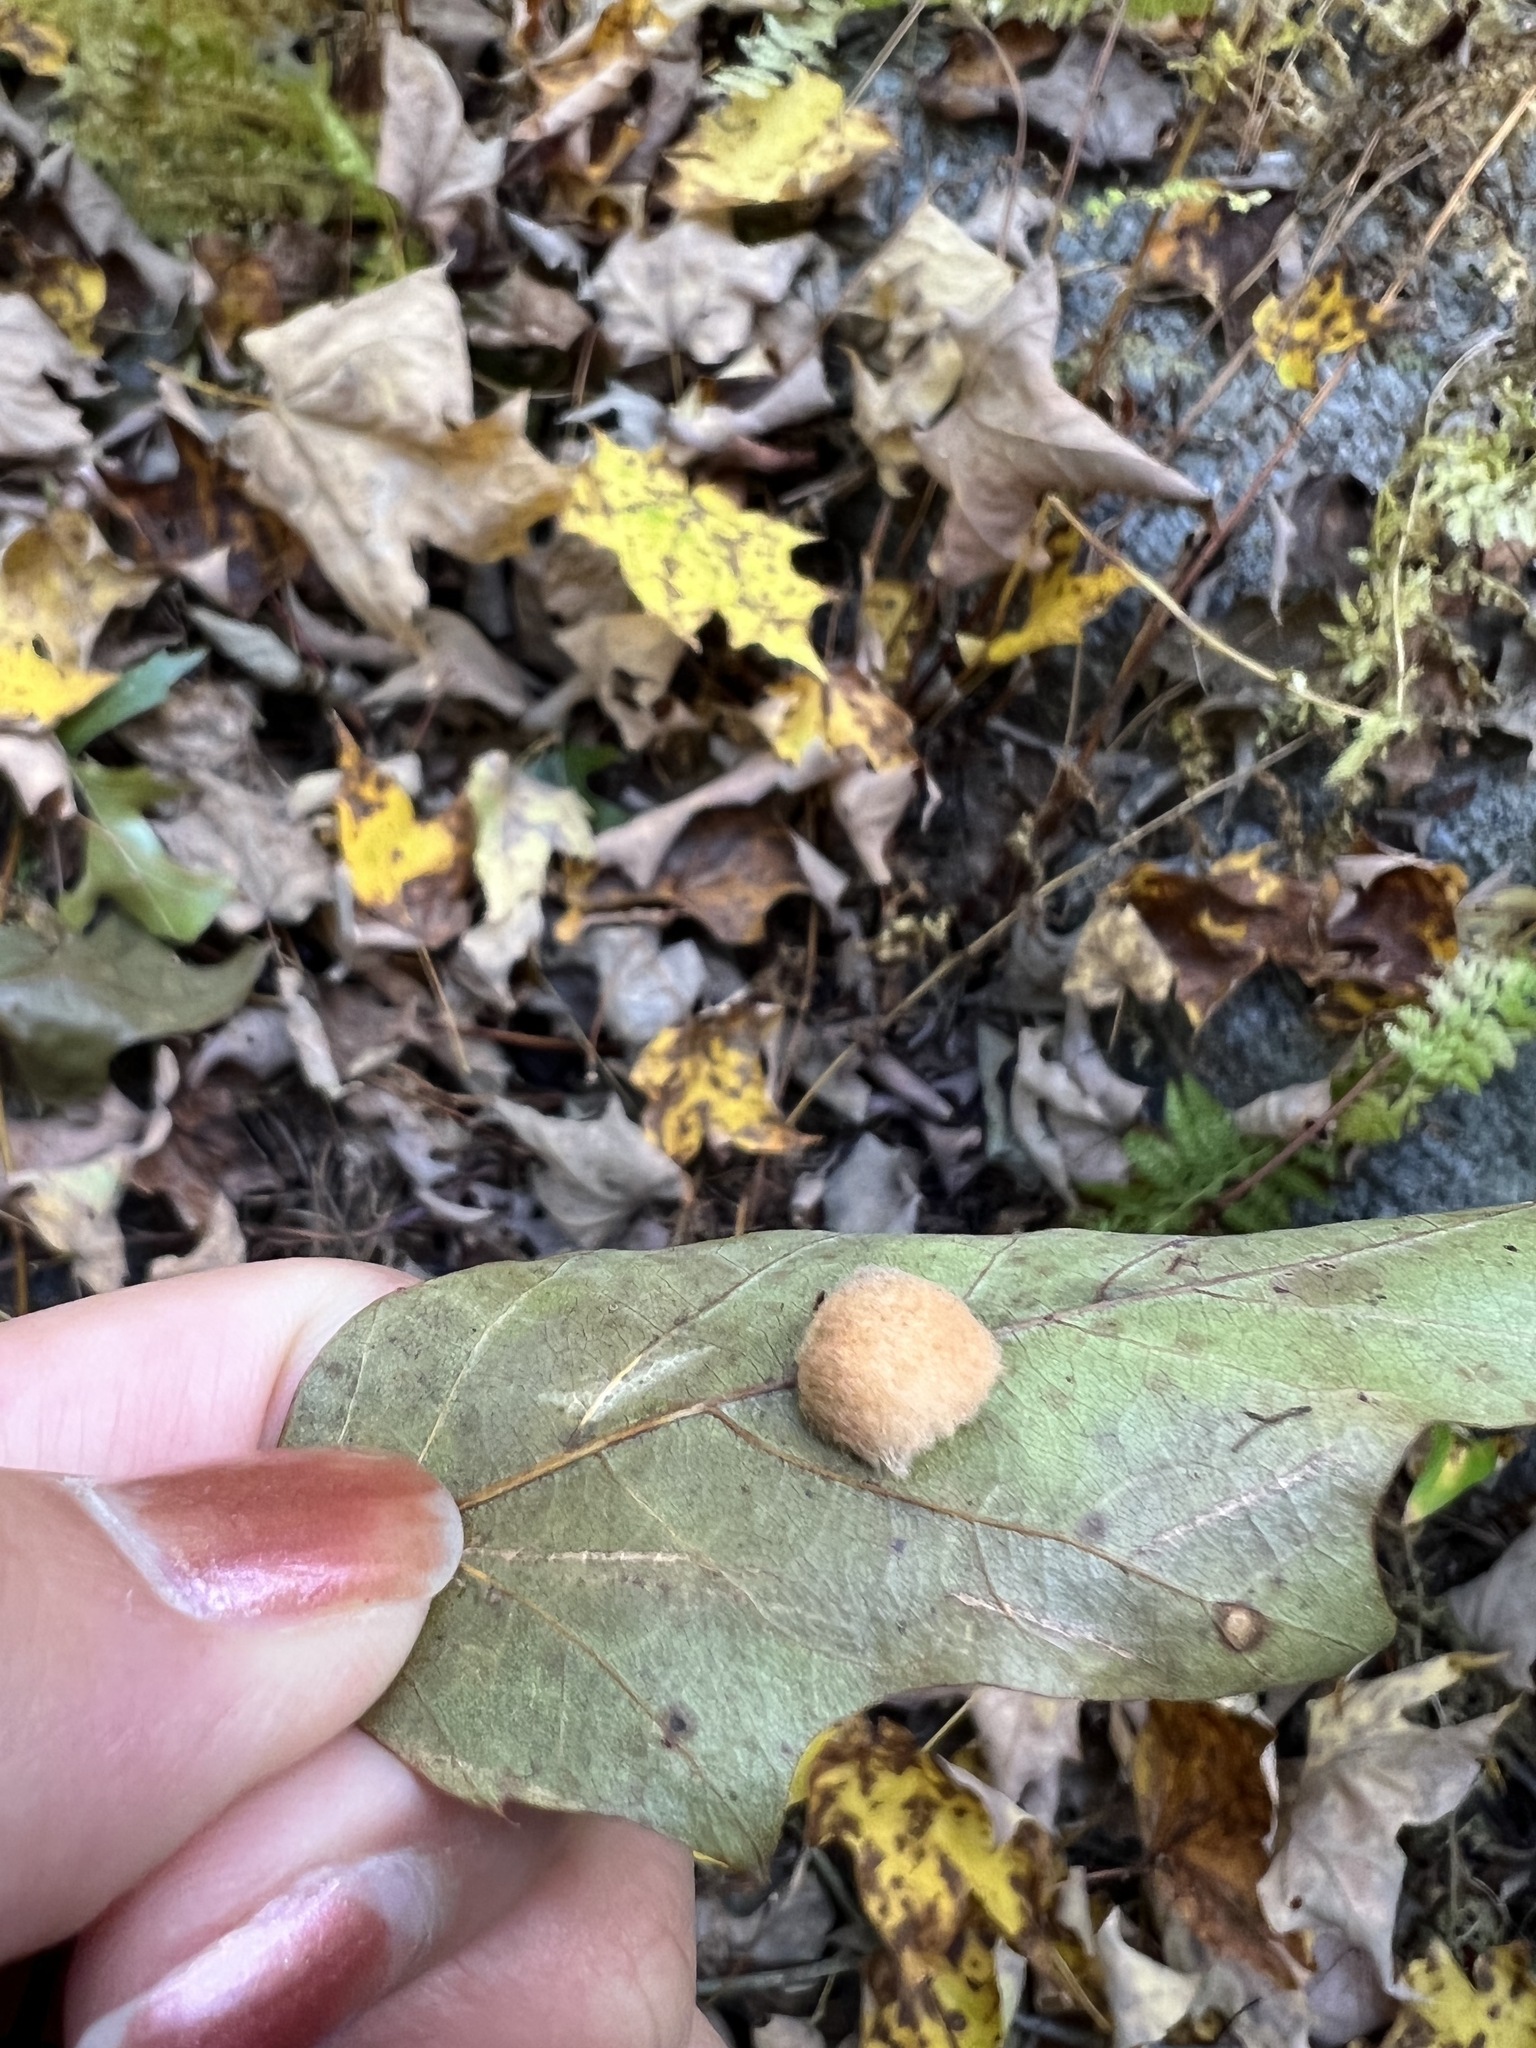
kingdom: Animalia
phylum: Arthropoda
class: Insecta
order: Hymenoptera
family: Cynipidae
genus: Callirhytis
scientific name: Callirhytis
